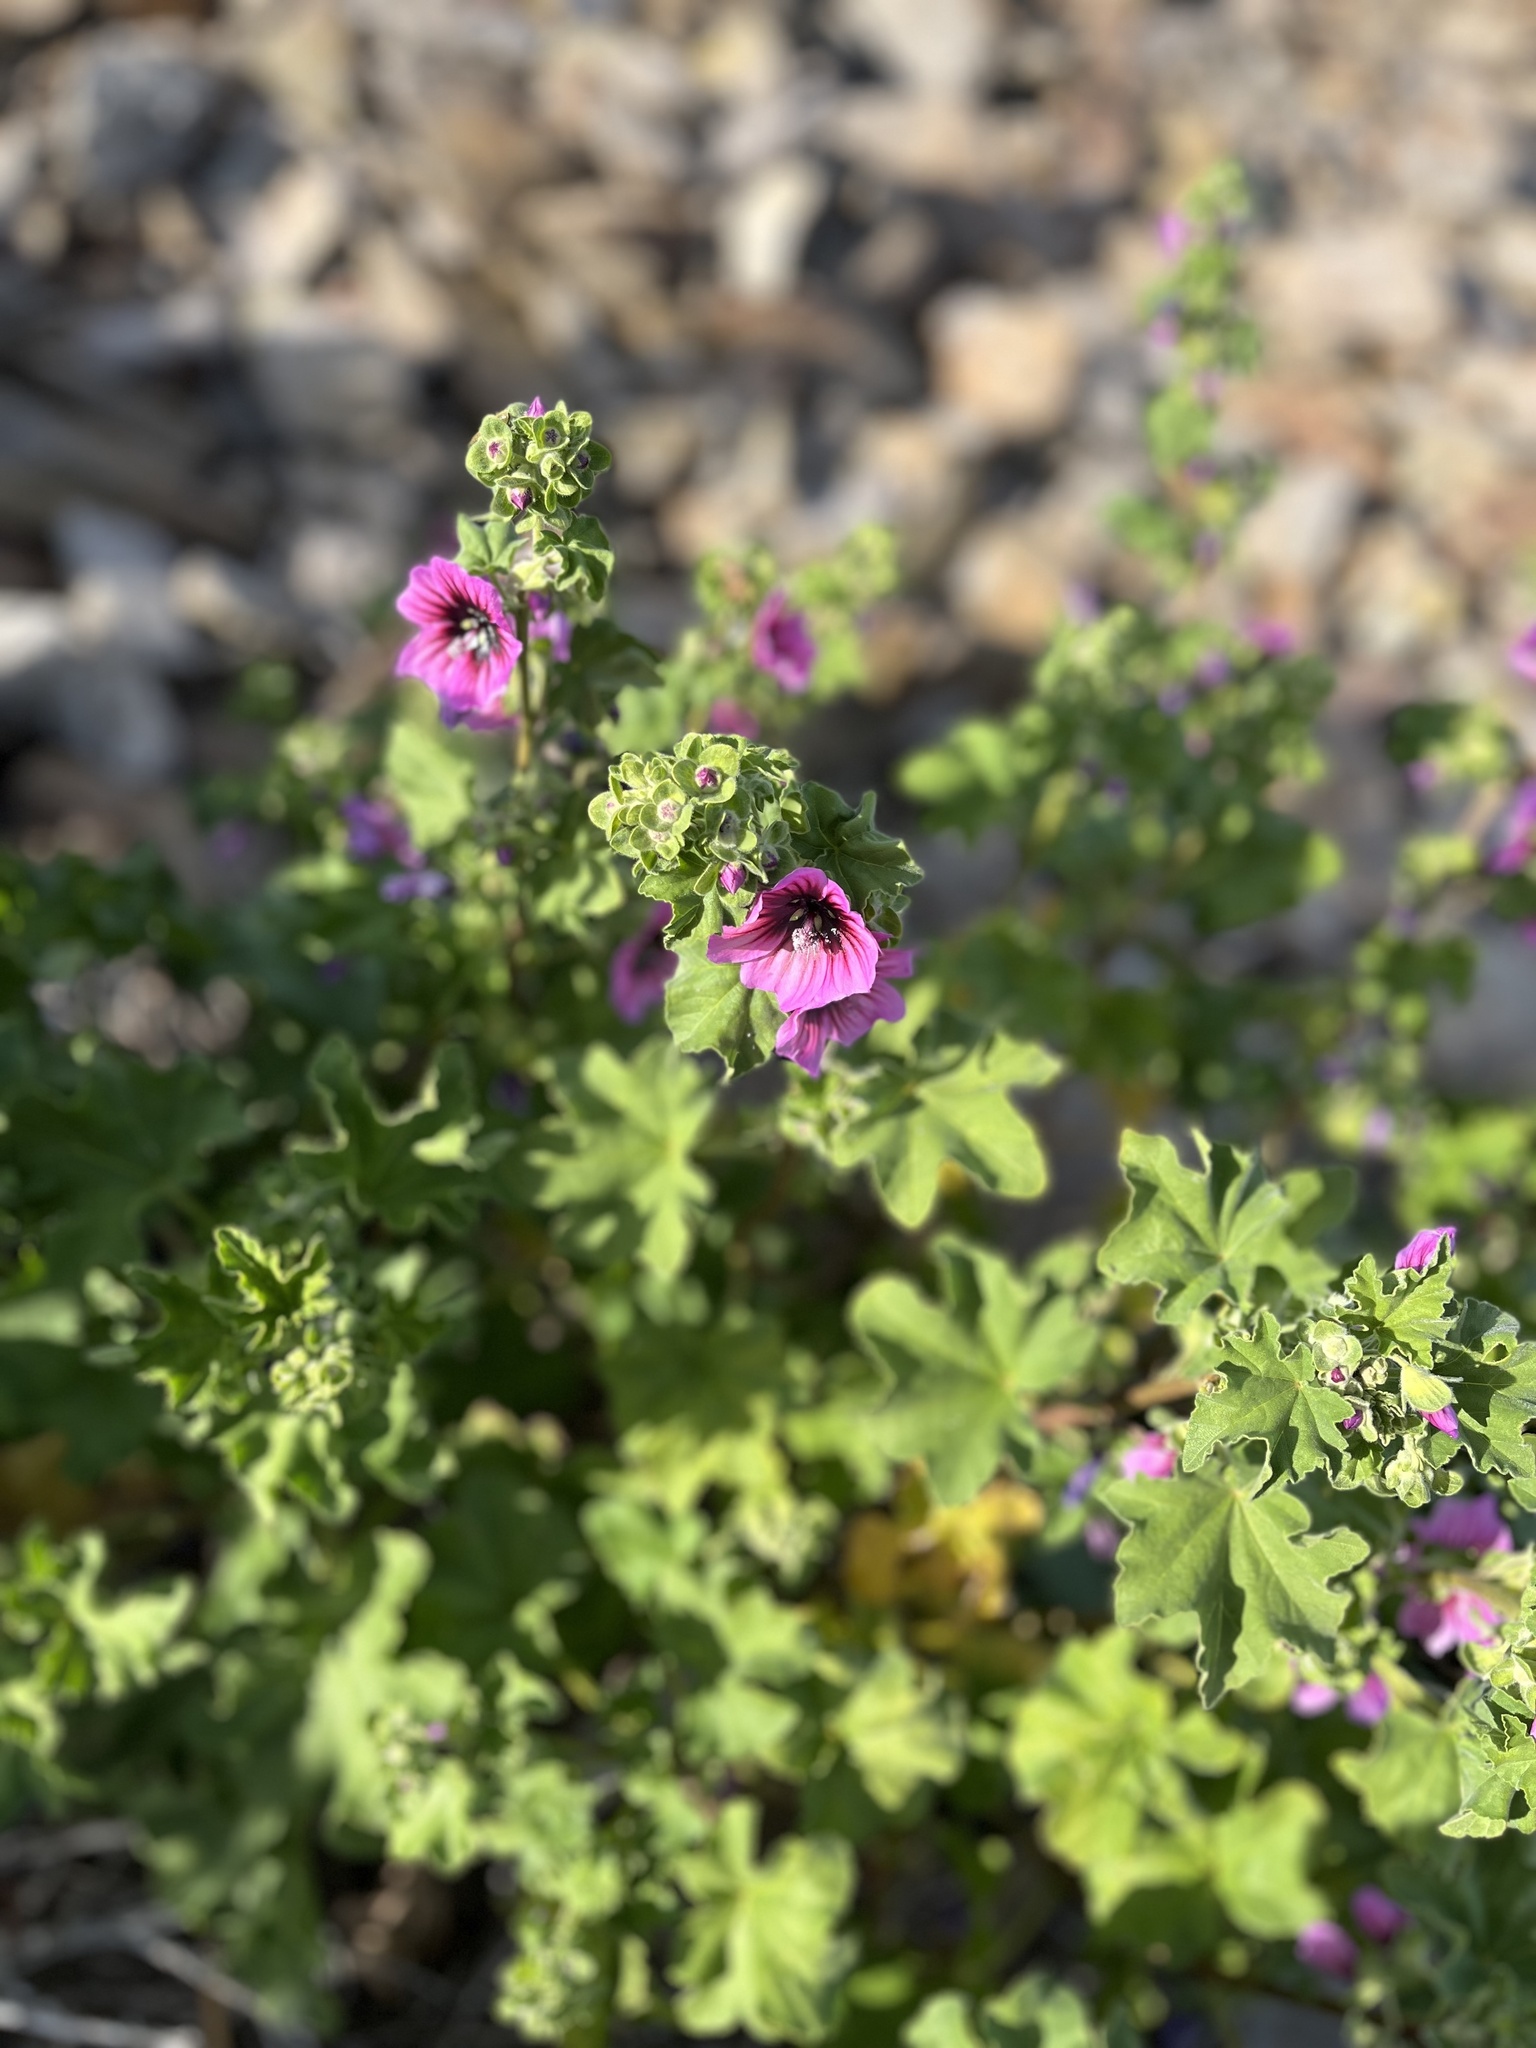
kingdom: Plantae
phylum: Tracheophyta
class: Magnoliopsida
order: Malvales
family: Malvaceae
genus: Malva
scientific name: Malva sylvestris
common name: Common mallow
